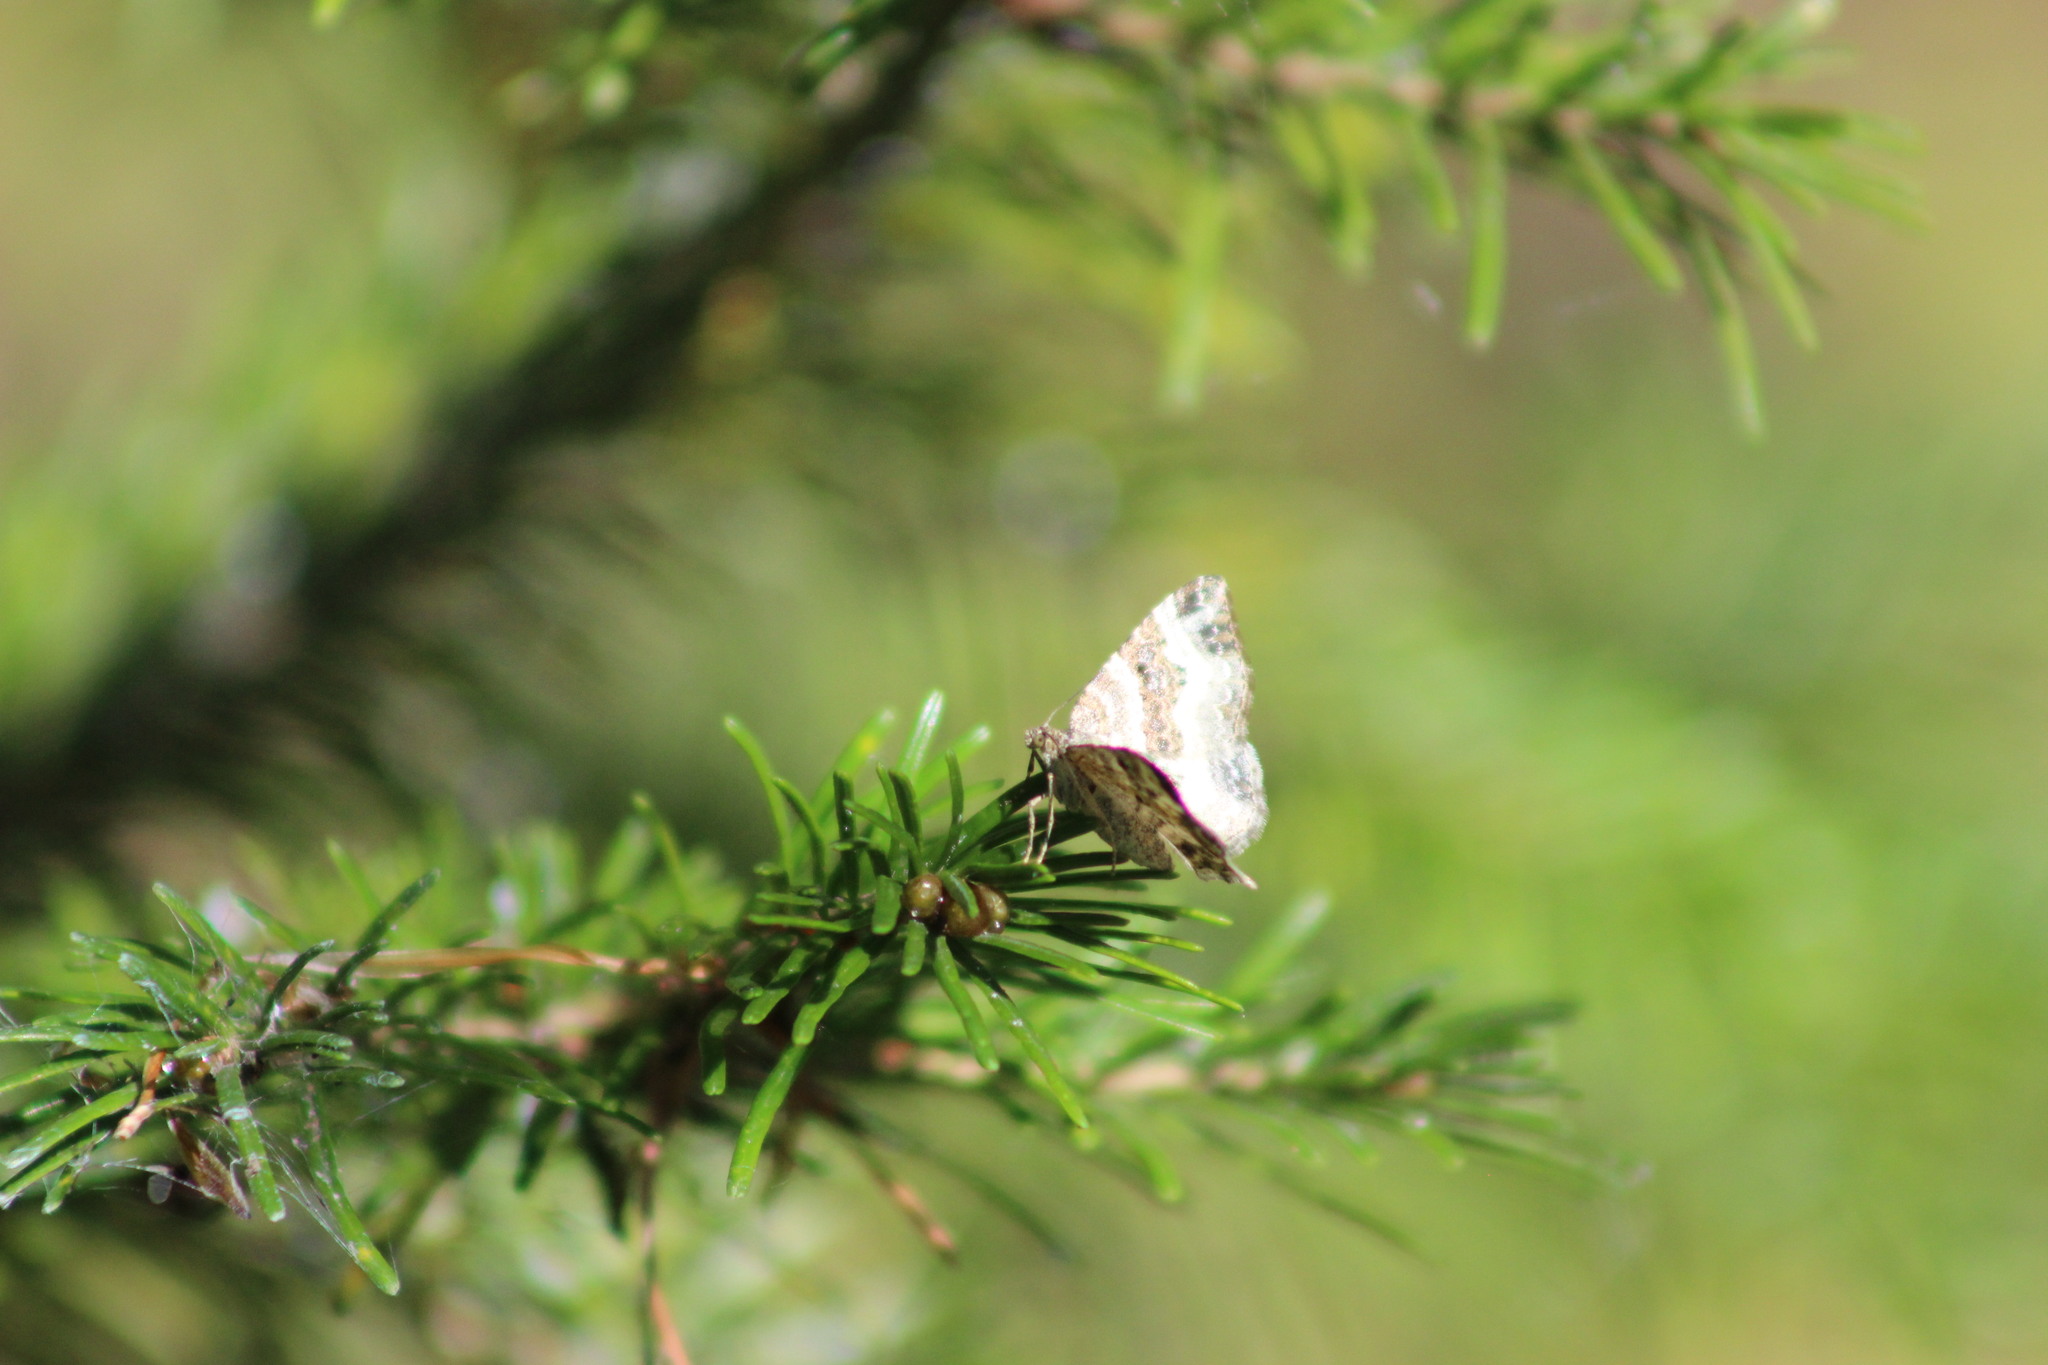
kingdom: Animalia
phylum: Arthropoda
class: Insecta
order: Lepidoptera
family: Geometridae
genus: Epirrhoe
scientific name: Epirrhoe alternata
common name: Common carpet
